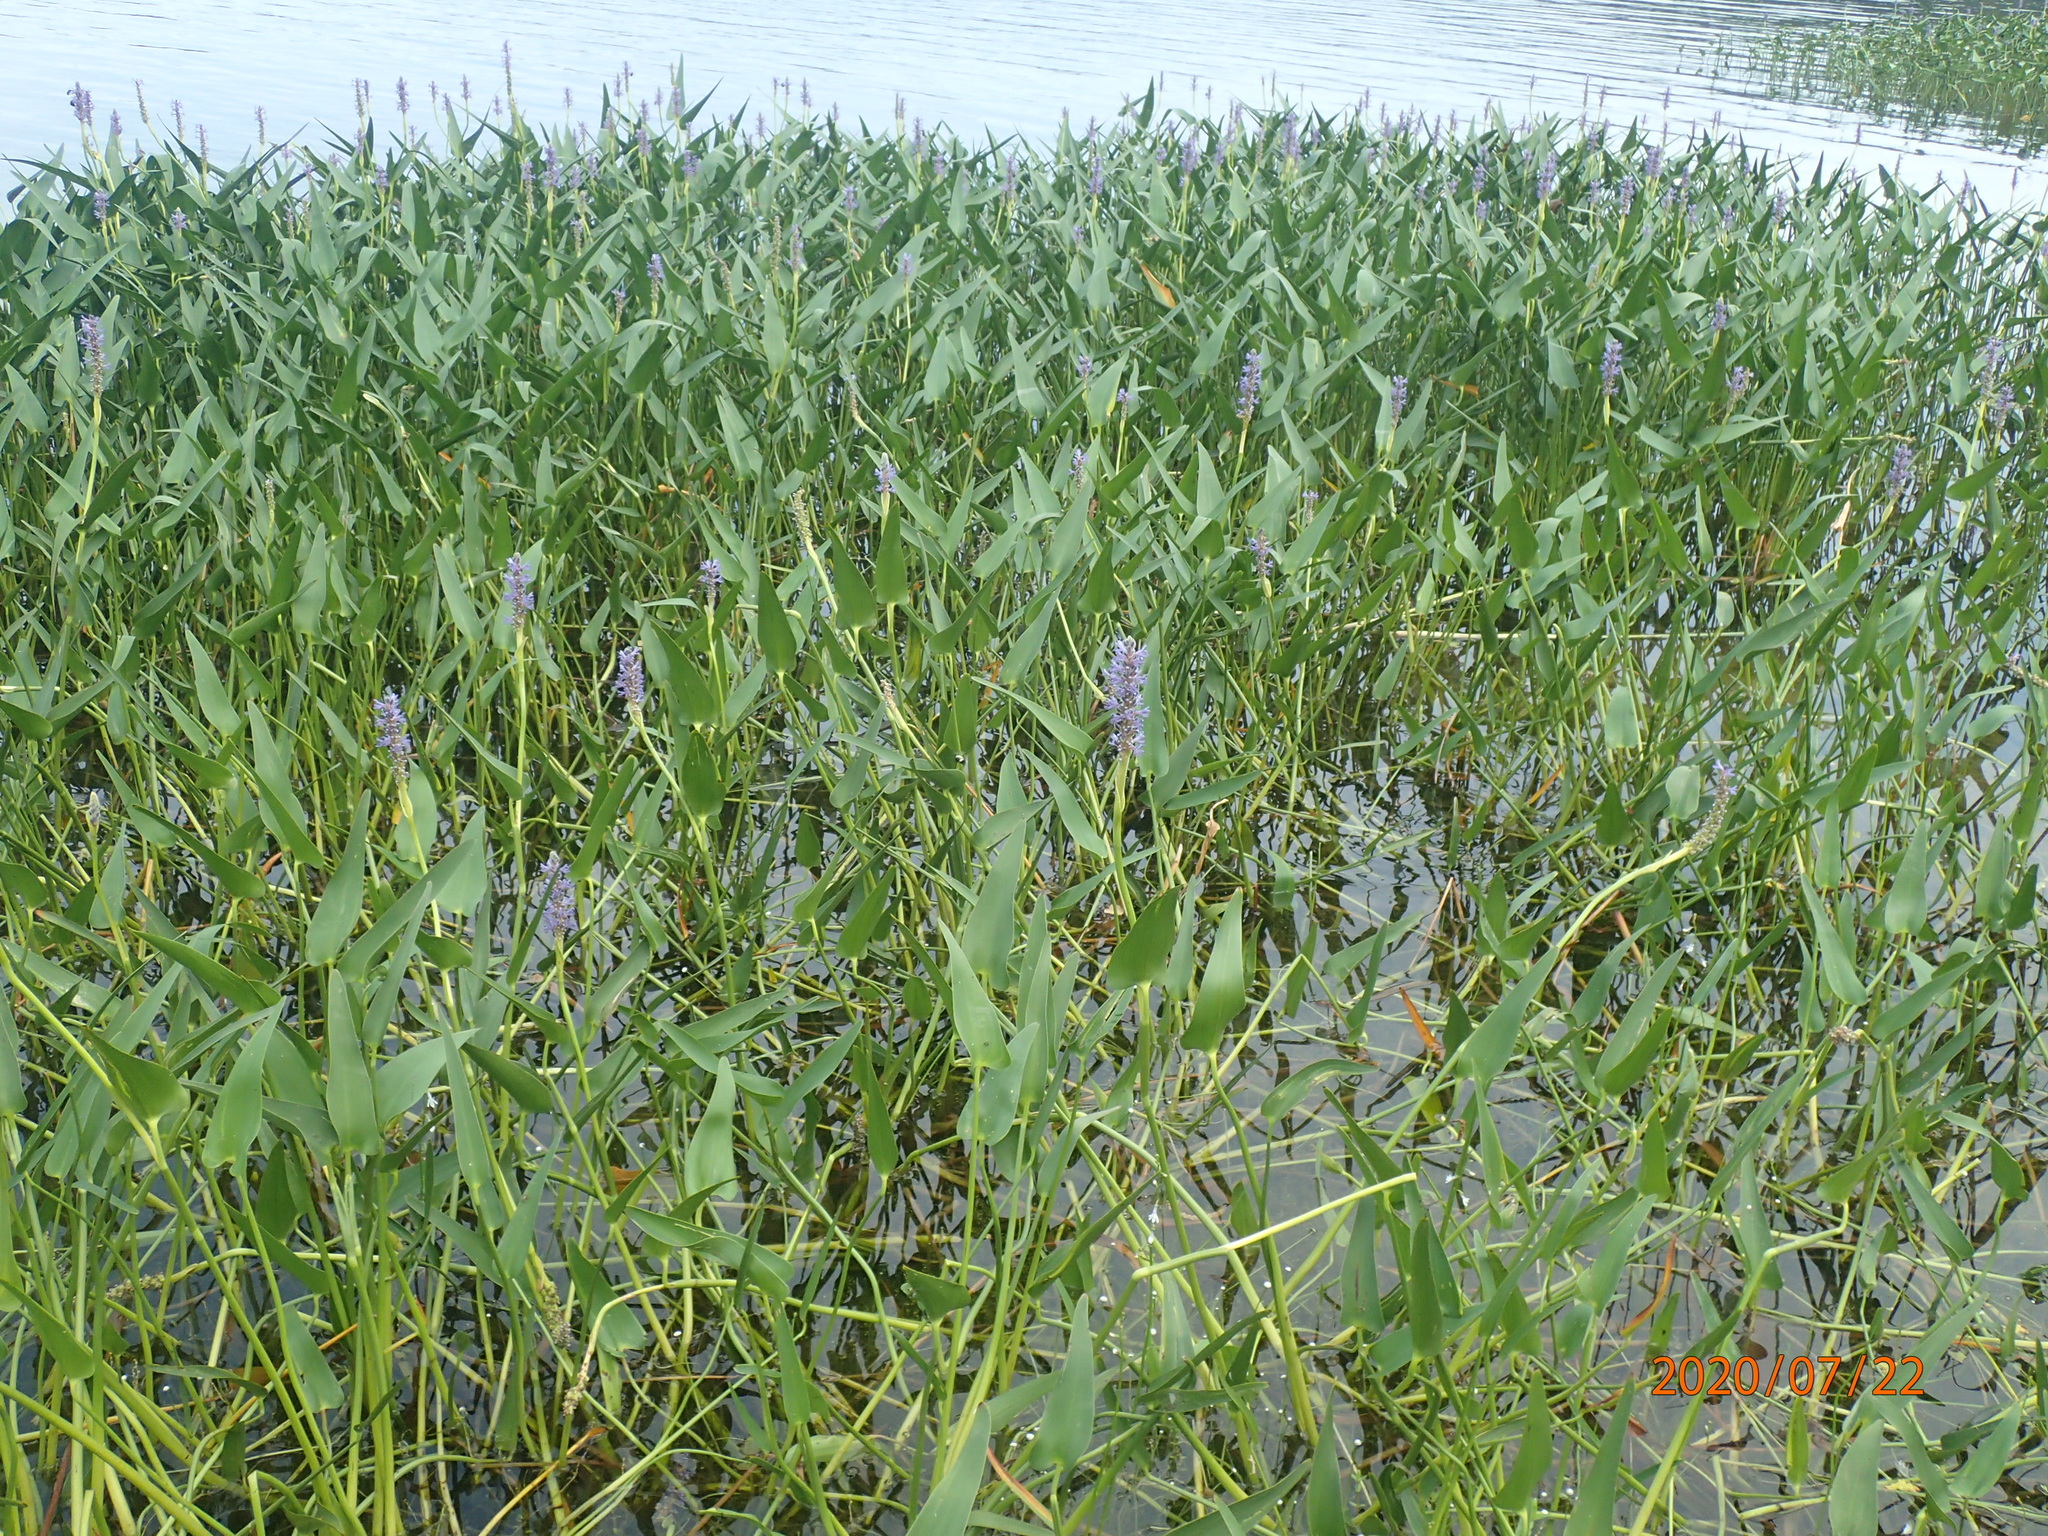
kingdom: Plantae
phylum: Tracheophyta
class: Liliopsida
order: Commelinales
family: Pontederiaceae
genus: Pontederia
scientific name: Pontederia cordata
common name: Pickerelweed
